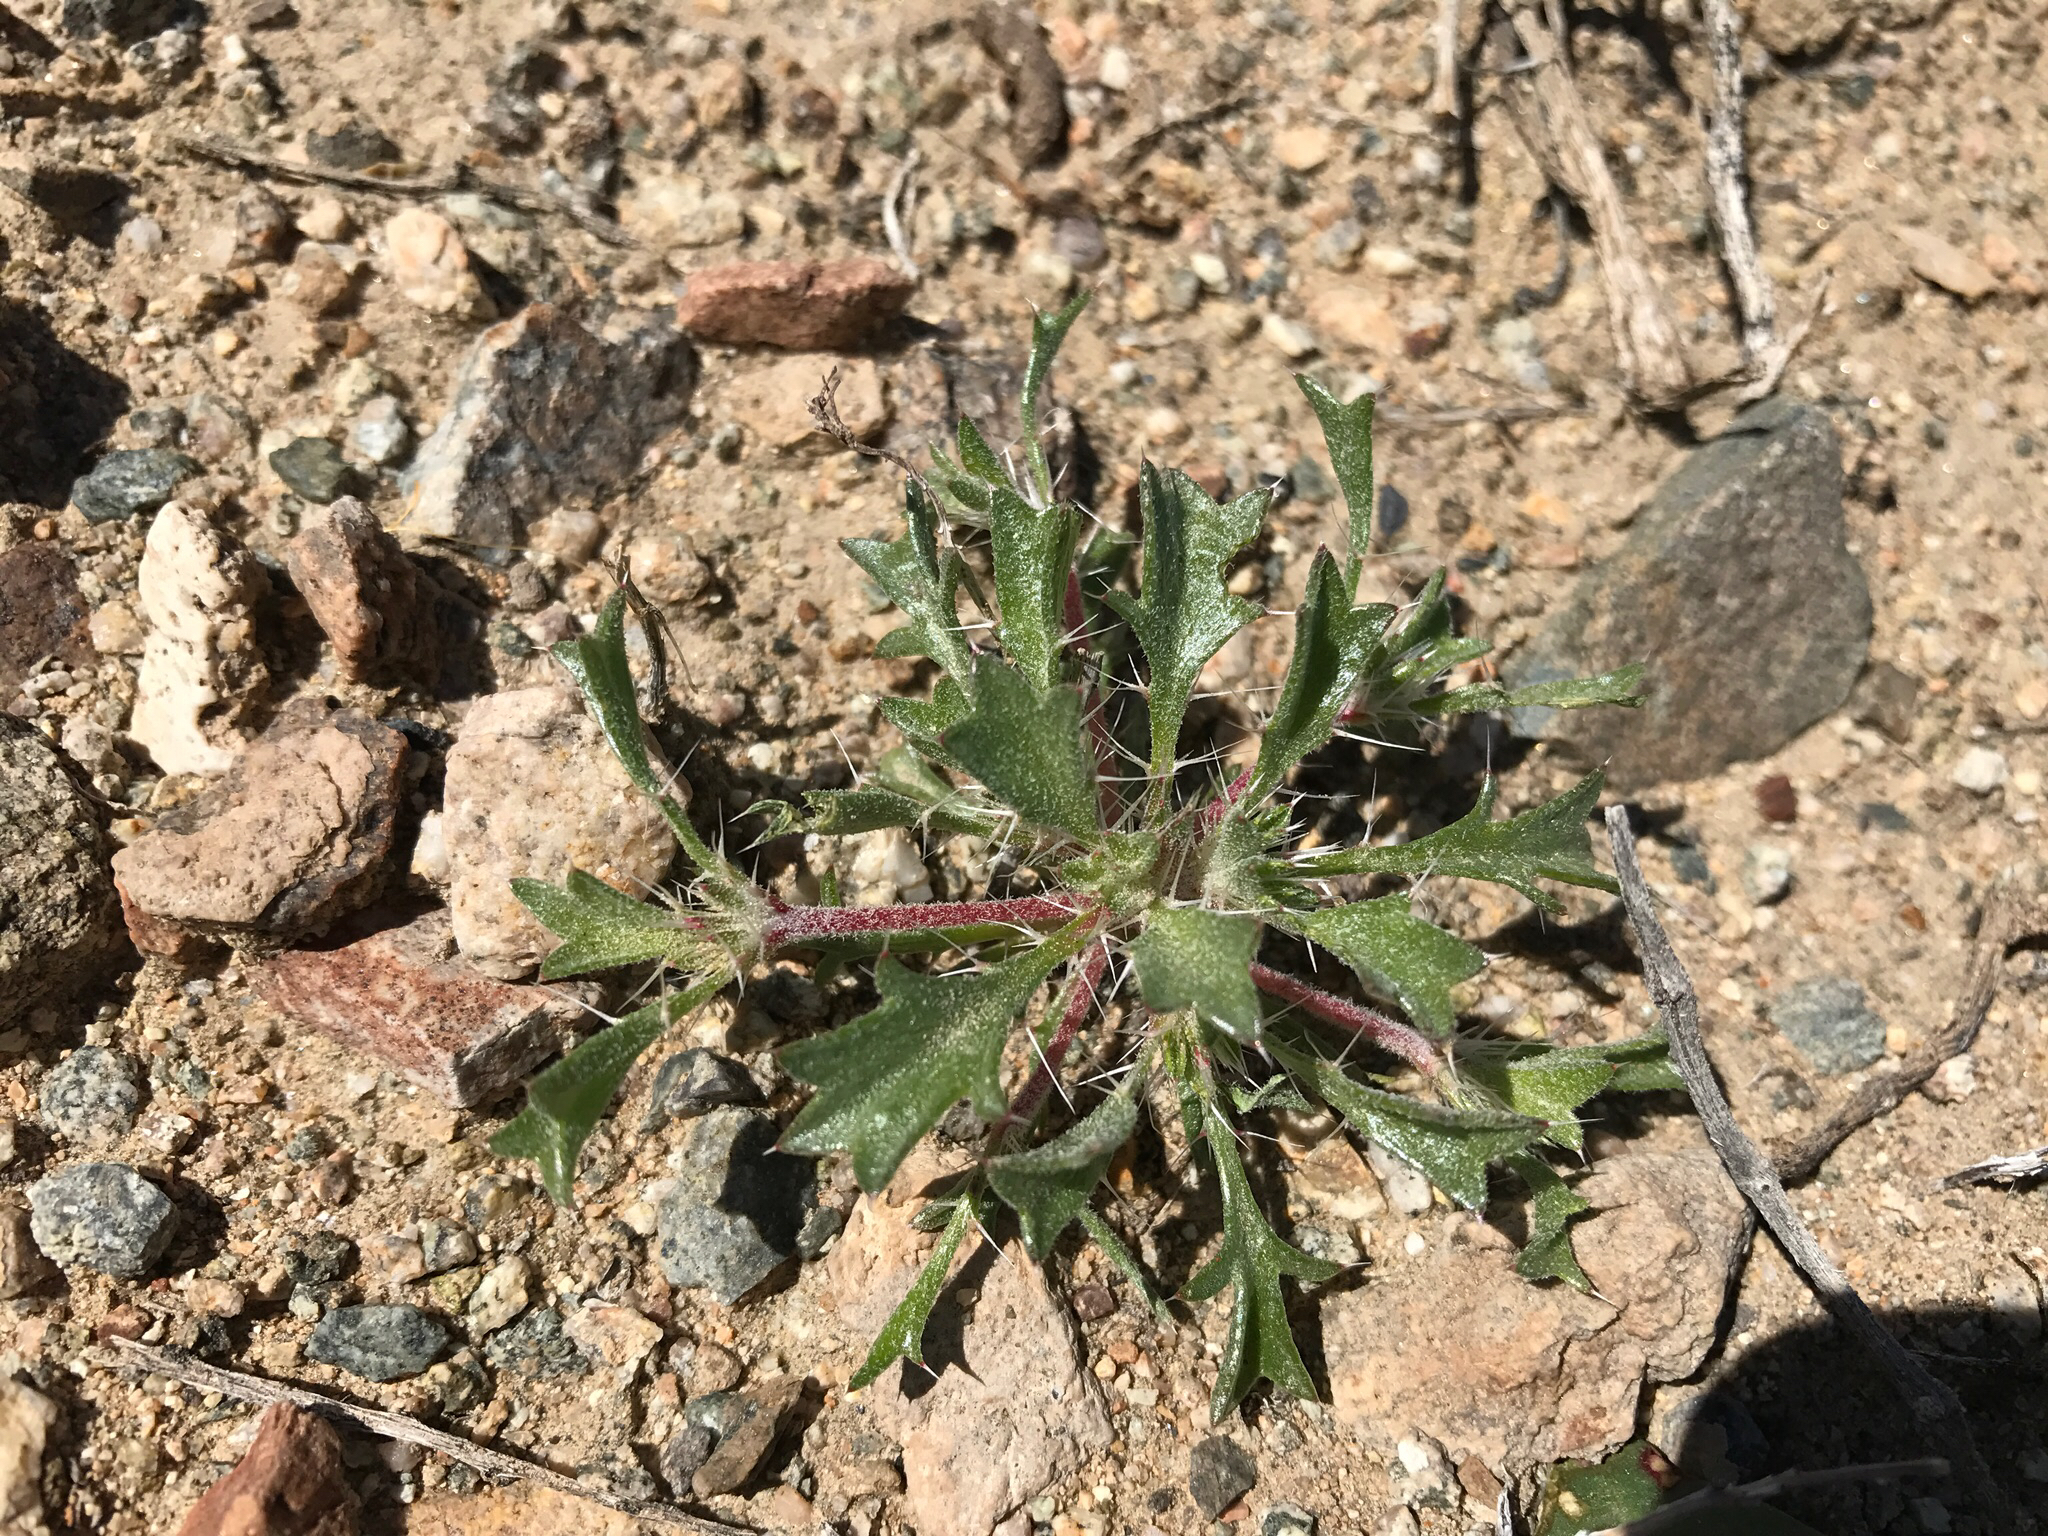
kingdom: Plantae
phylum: Tracheophyta
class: Magnoliopsida
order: Ericales
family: Polemoniaceae
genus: Langloisia
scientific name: Langloisia setosissima
